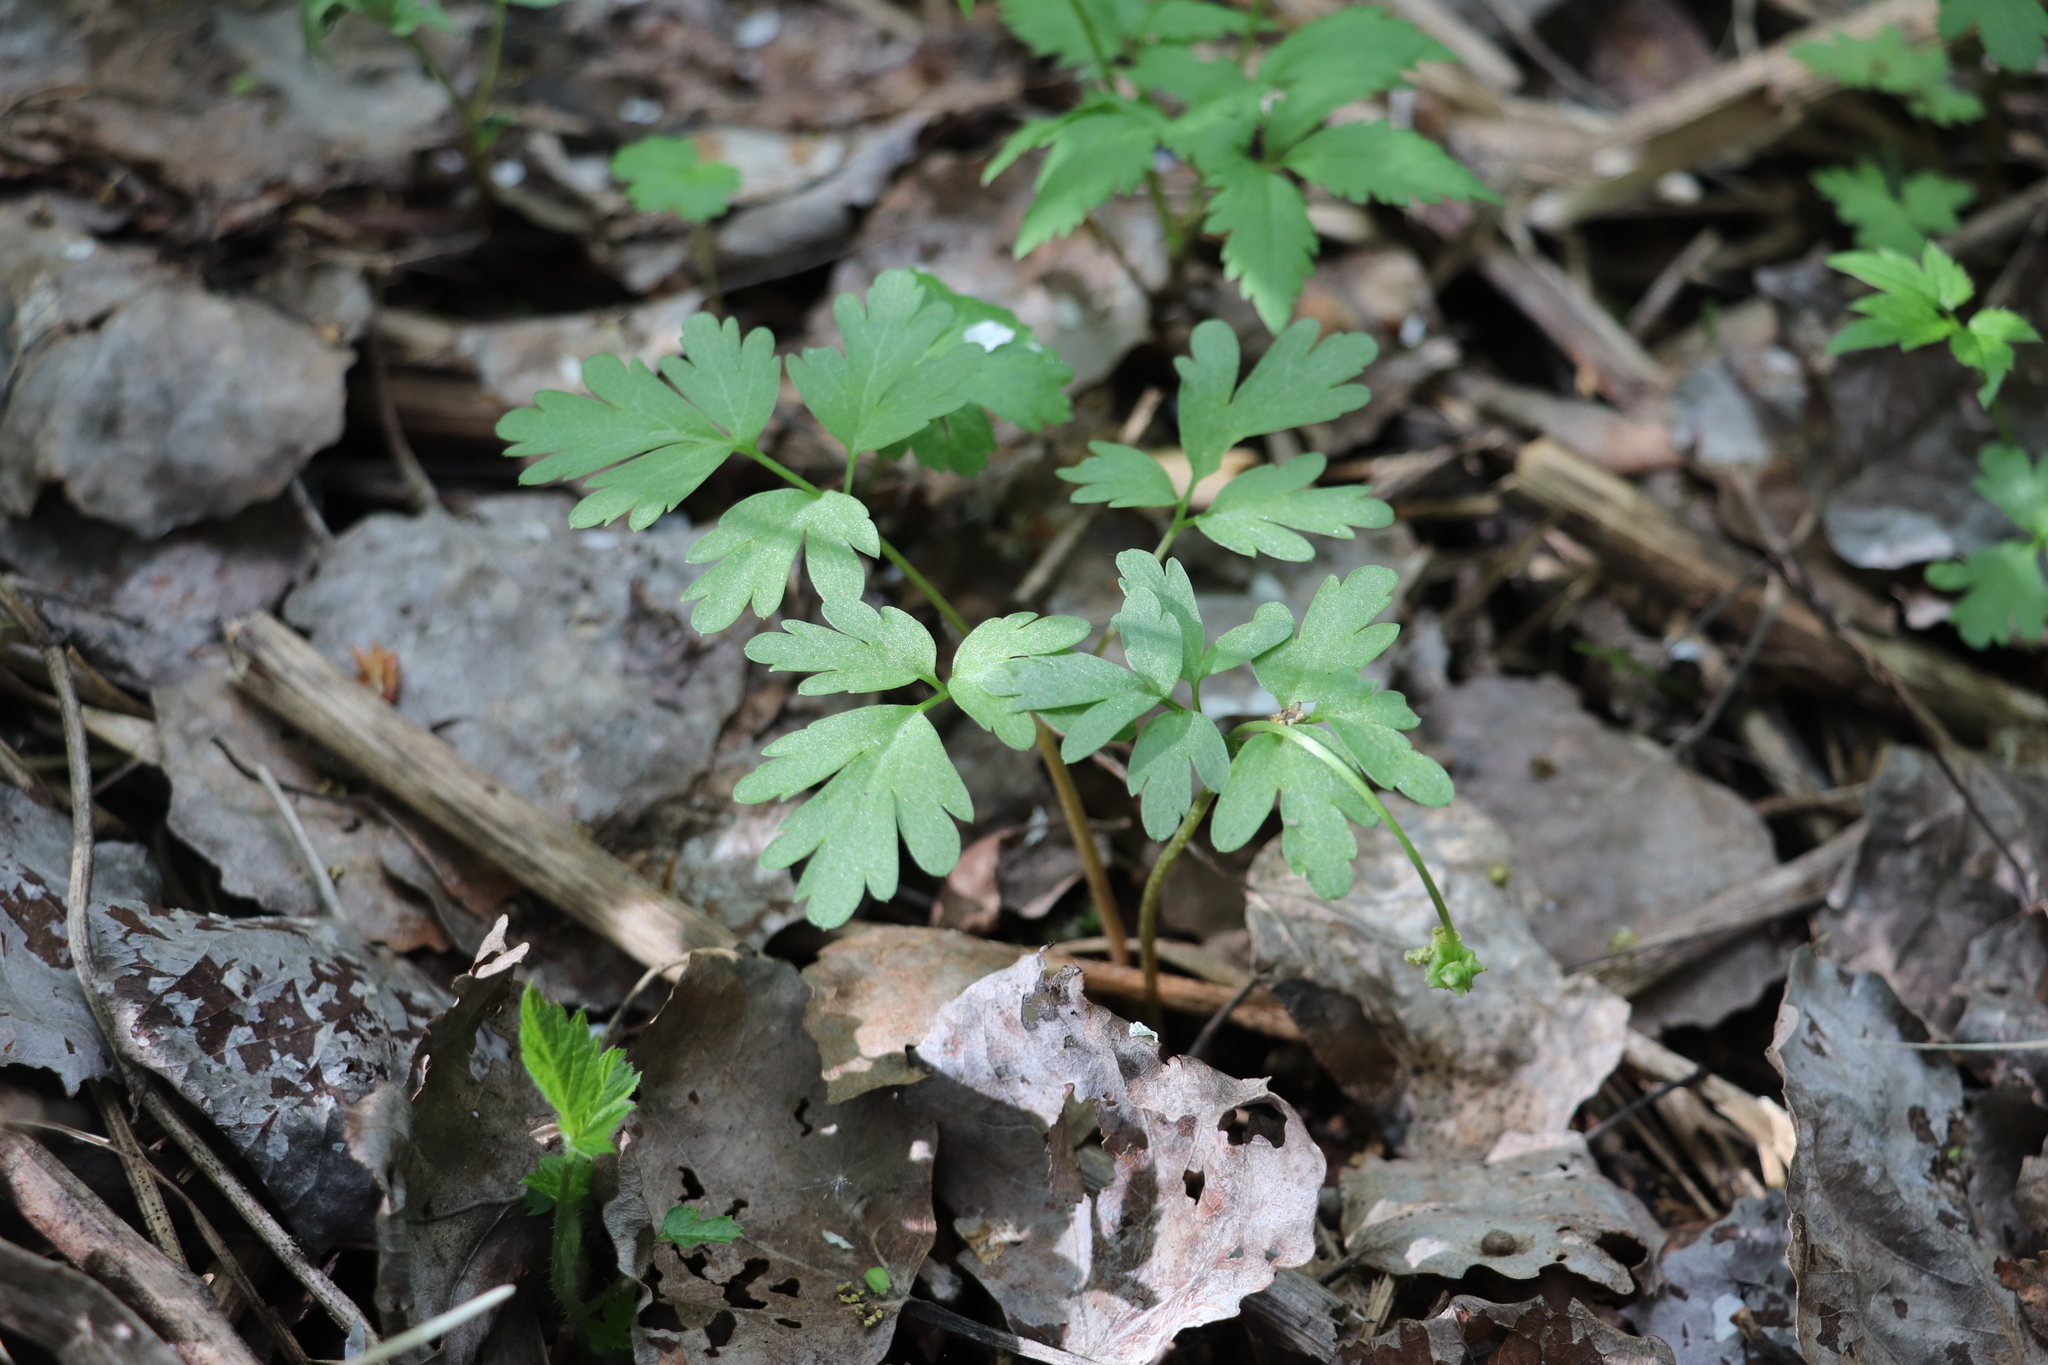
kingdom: Plantae
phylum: Tracheophyta
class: Magnoliopsida
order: Dipsacales
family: Viburnaceae
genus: Adoxa
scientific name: Adoxa moschatellina
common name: Moschatel
